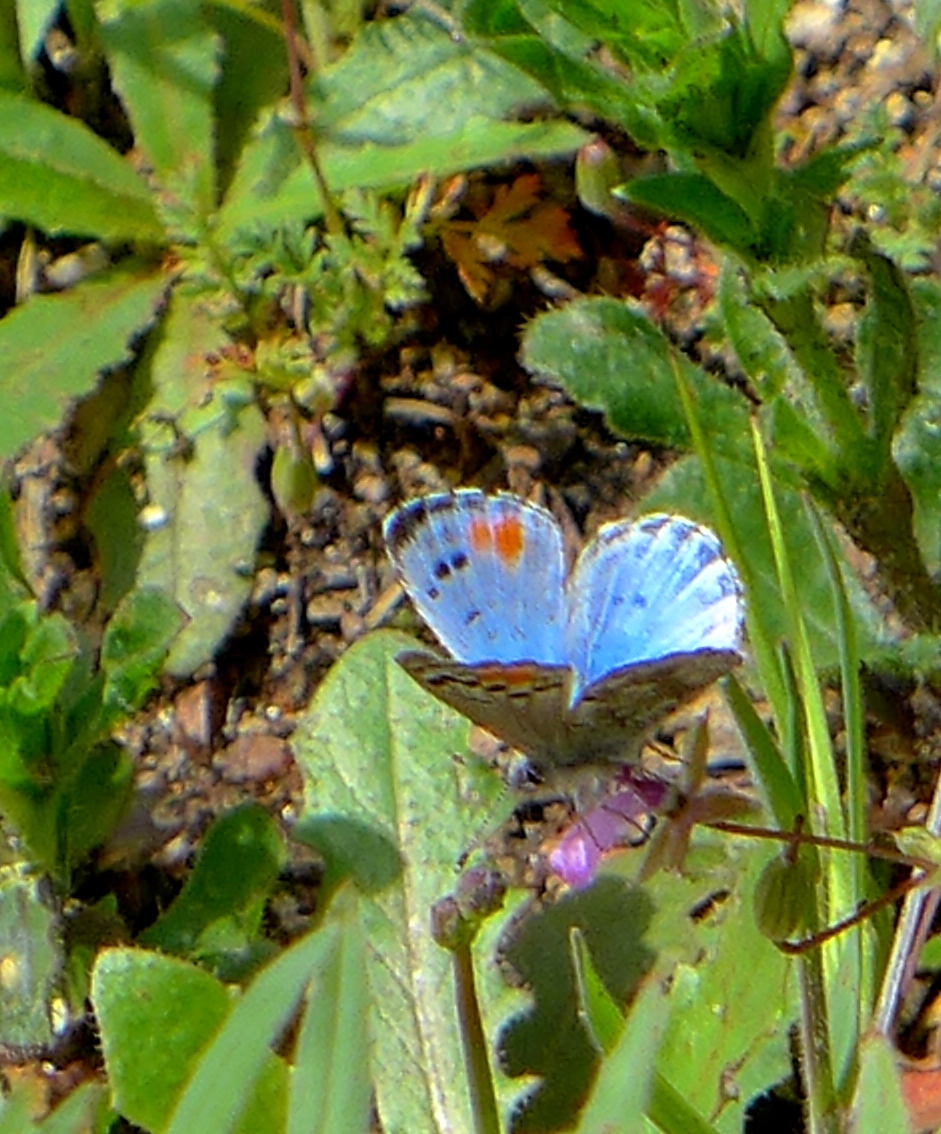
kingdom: Animalia
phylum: Arthropoda
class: Insecta
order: Lepidoptera
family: Lycaenidae
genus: Philotes
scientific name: Philotes sonorensis
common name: Sonoran blue
